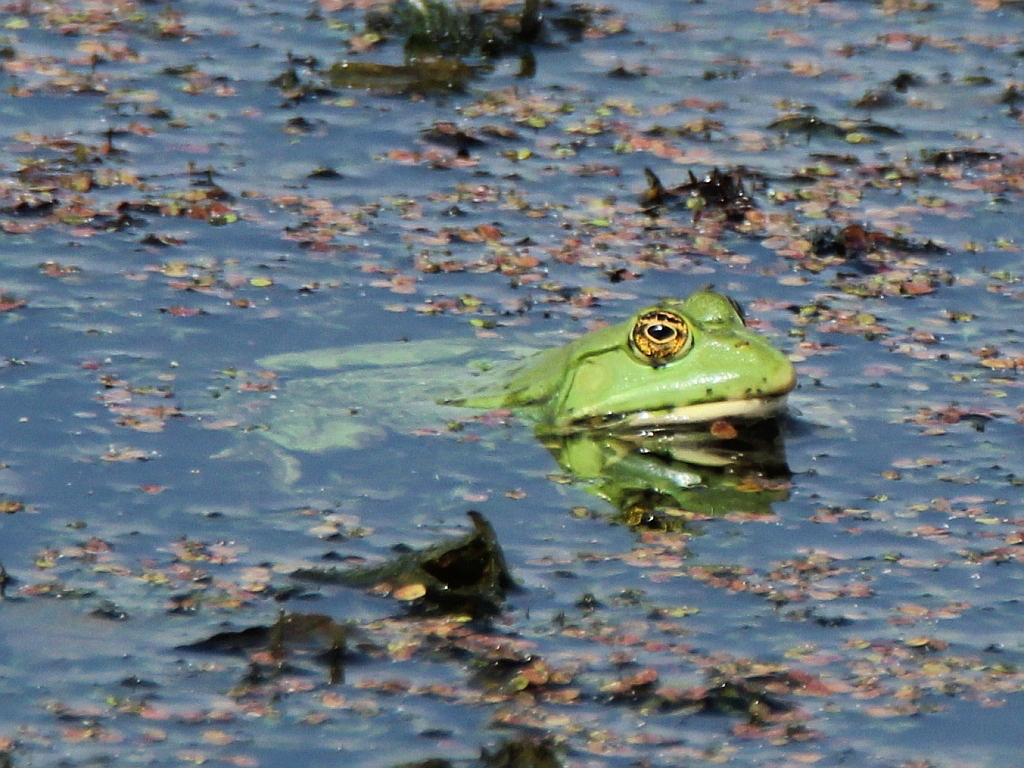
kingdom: Animalia
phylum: Chordata
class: Amphibia
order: Anura
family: Ranidae
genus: Pelophylax
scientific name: Pelophylax lessonae
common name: Pool frog
